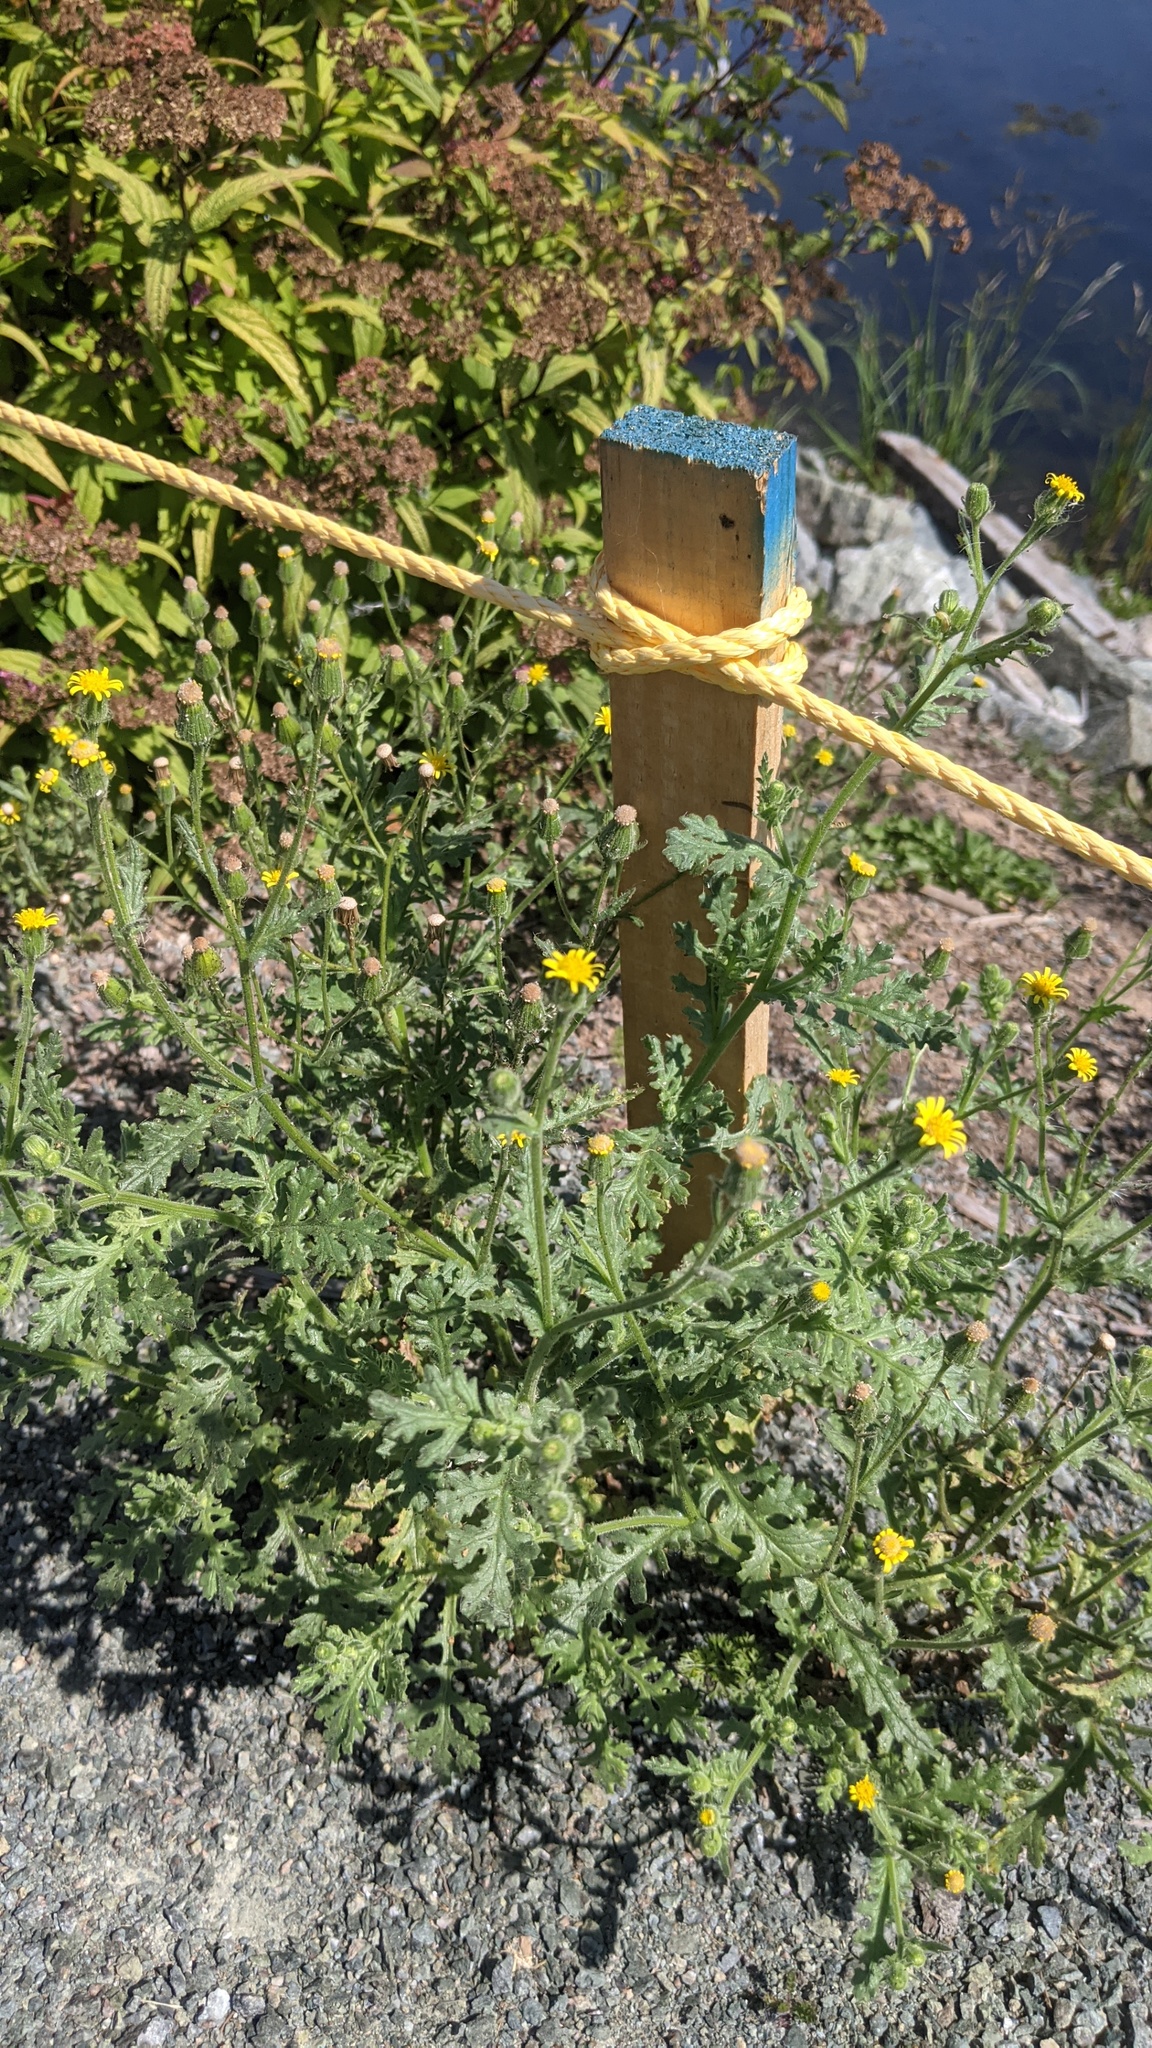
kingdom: Plantae
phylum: Tracheophyta
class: Magnoliopsida
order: Asterales
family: Asteraceae
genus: Senecio
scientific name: Senecio viscosus
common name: Sticky groundsel
